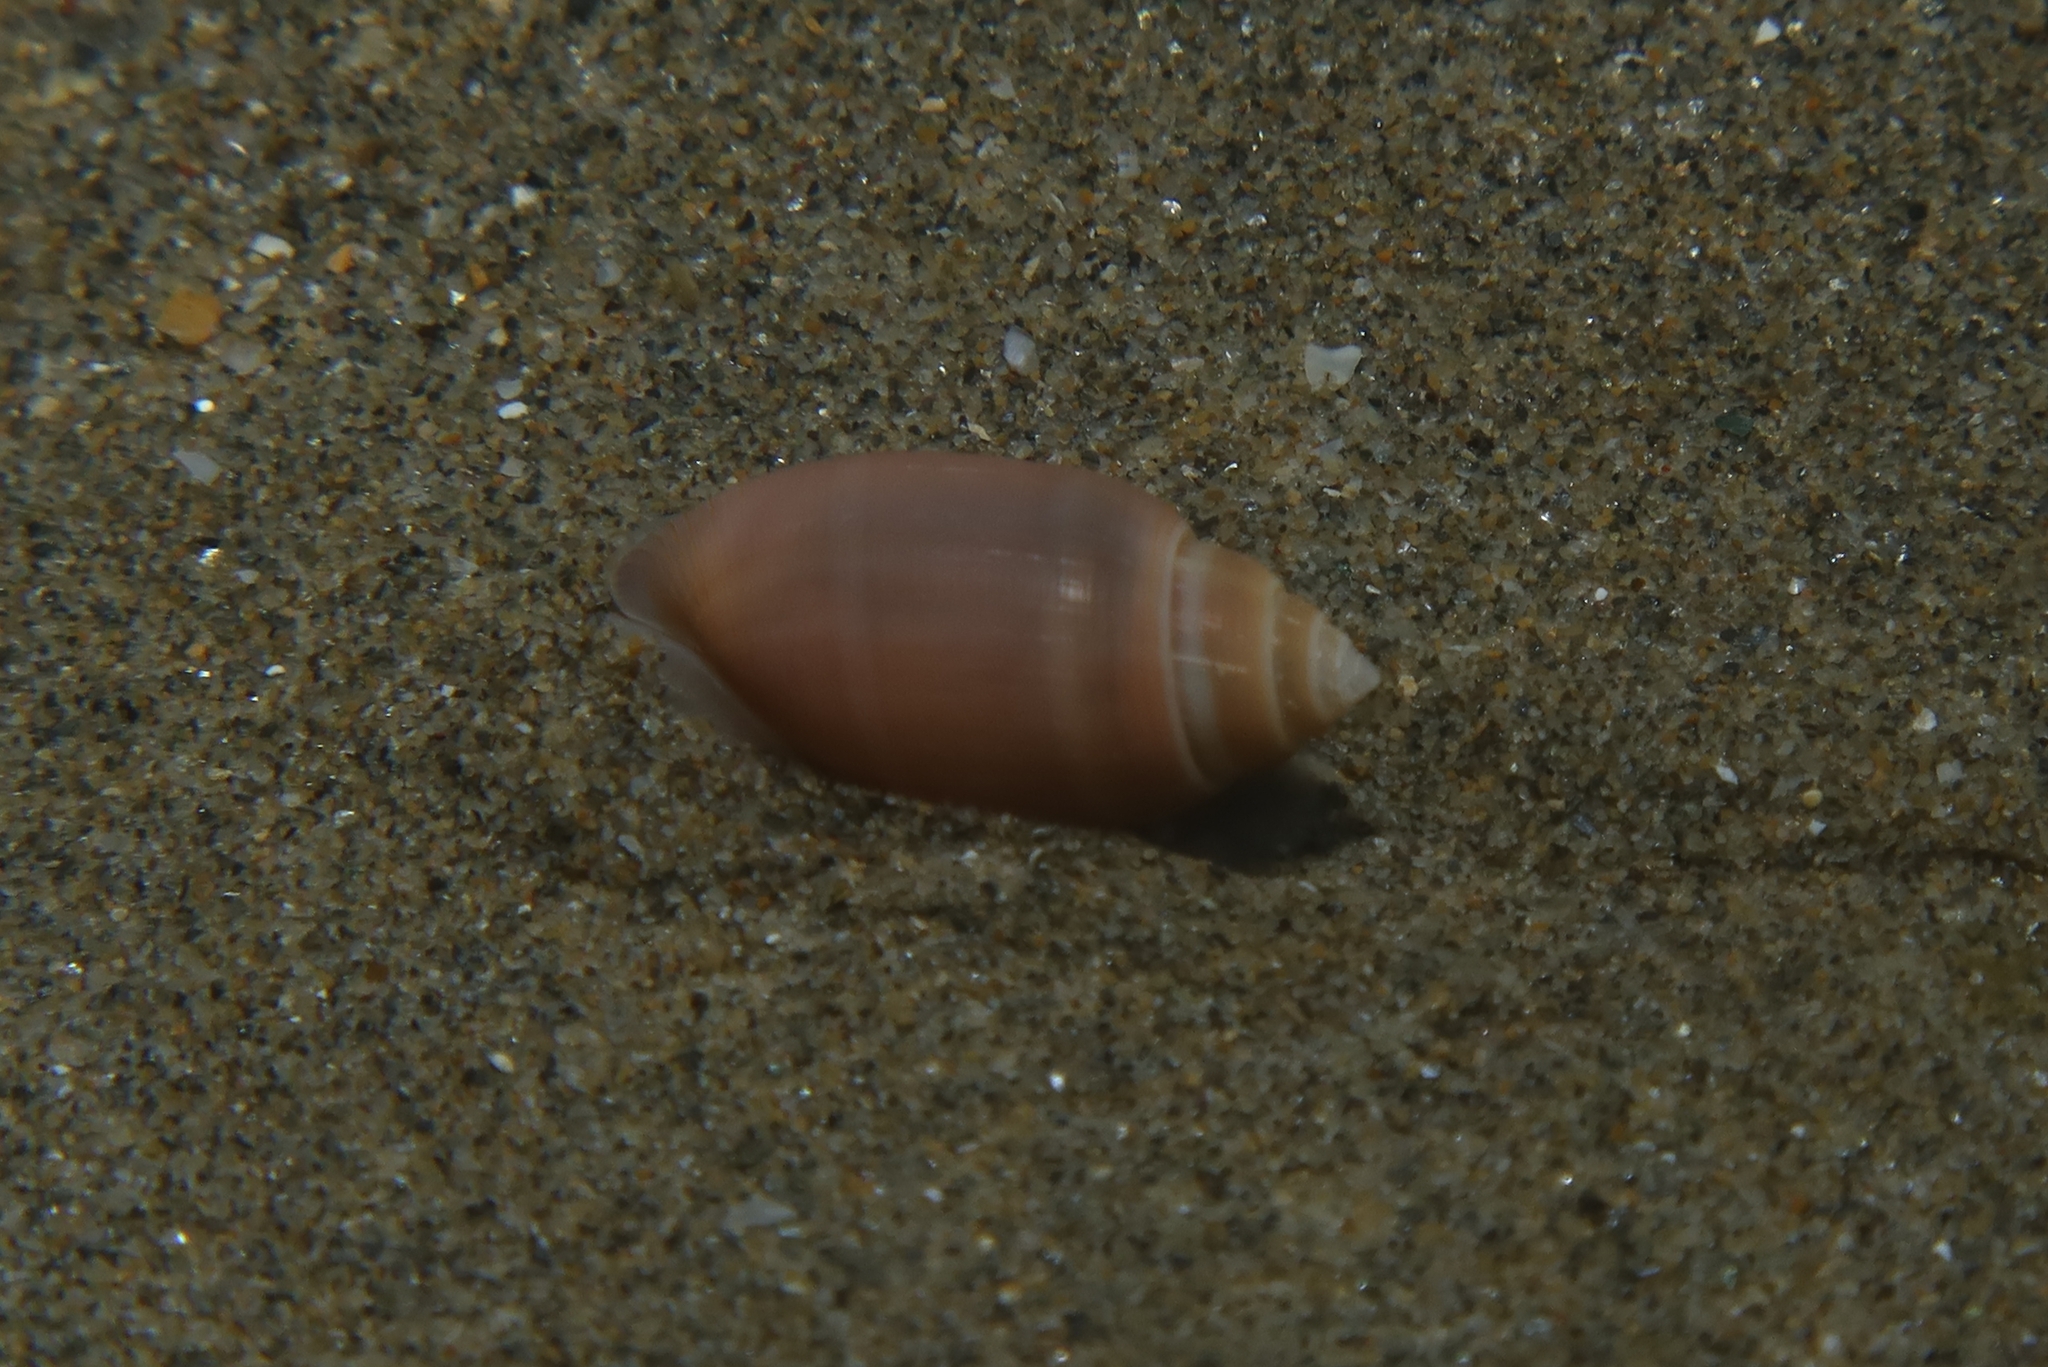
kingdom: Animalia
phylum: Mollusca
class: Gastropoda
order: Cephalaspidea
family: Acteonidae
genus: Acteon
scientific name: Acteon tornatilis
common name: European acteon
